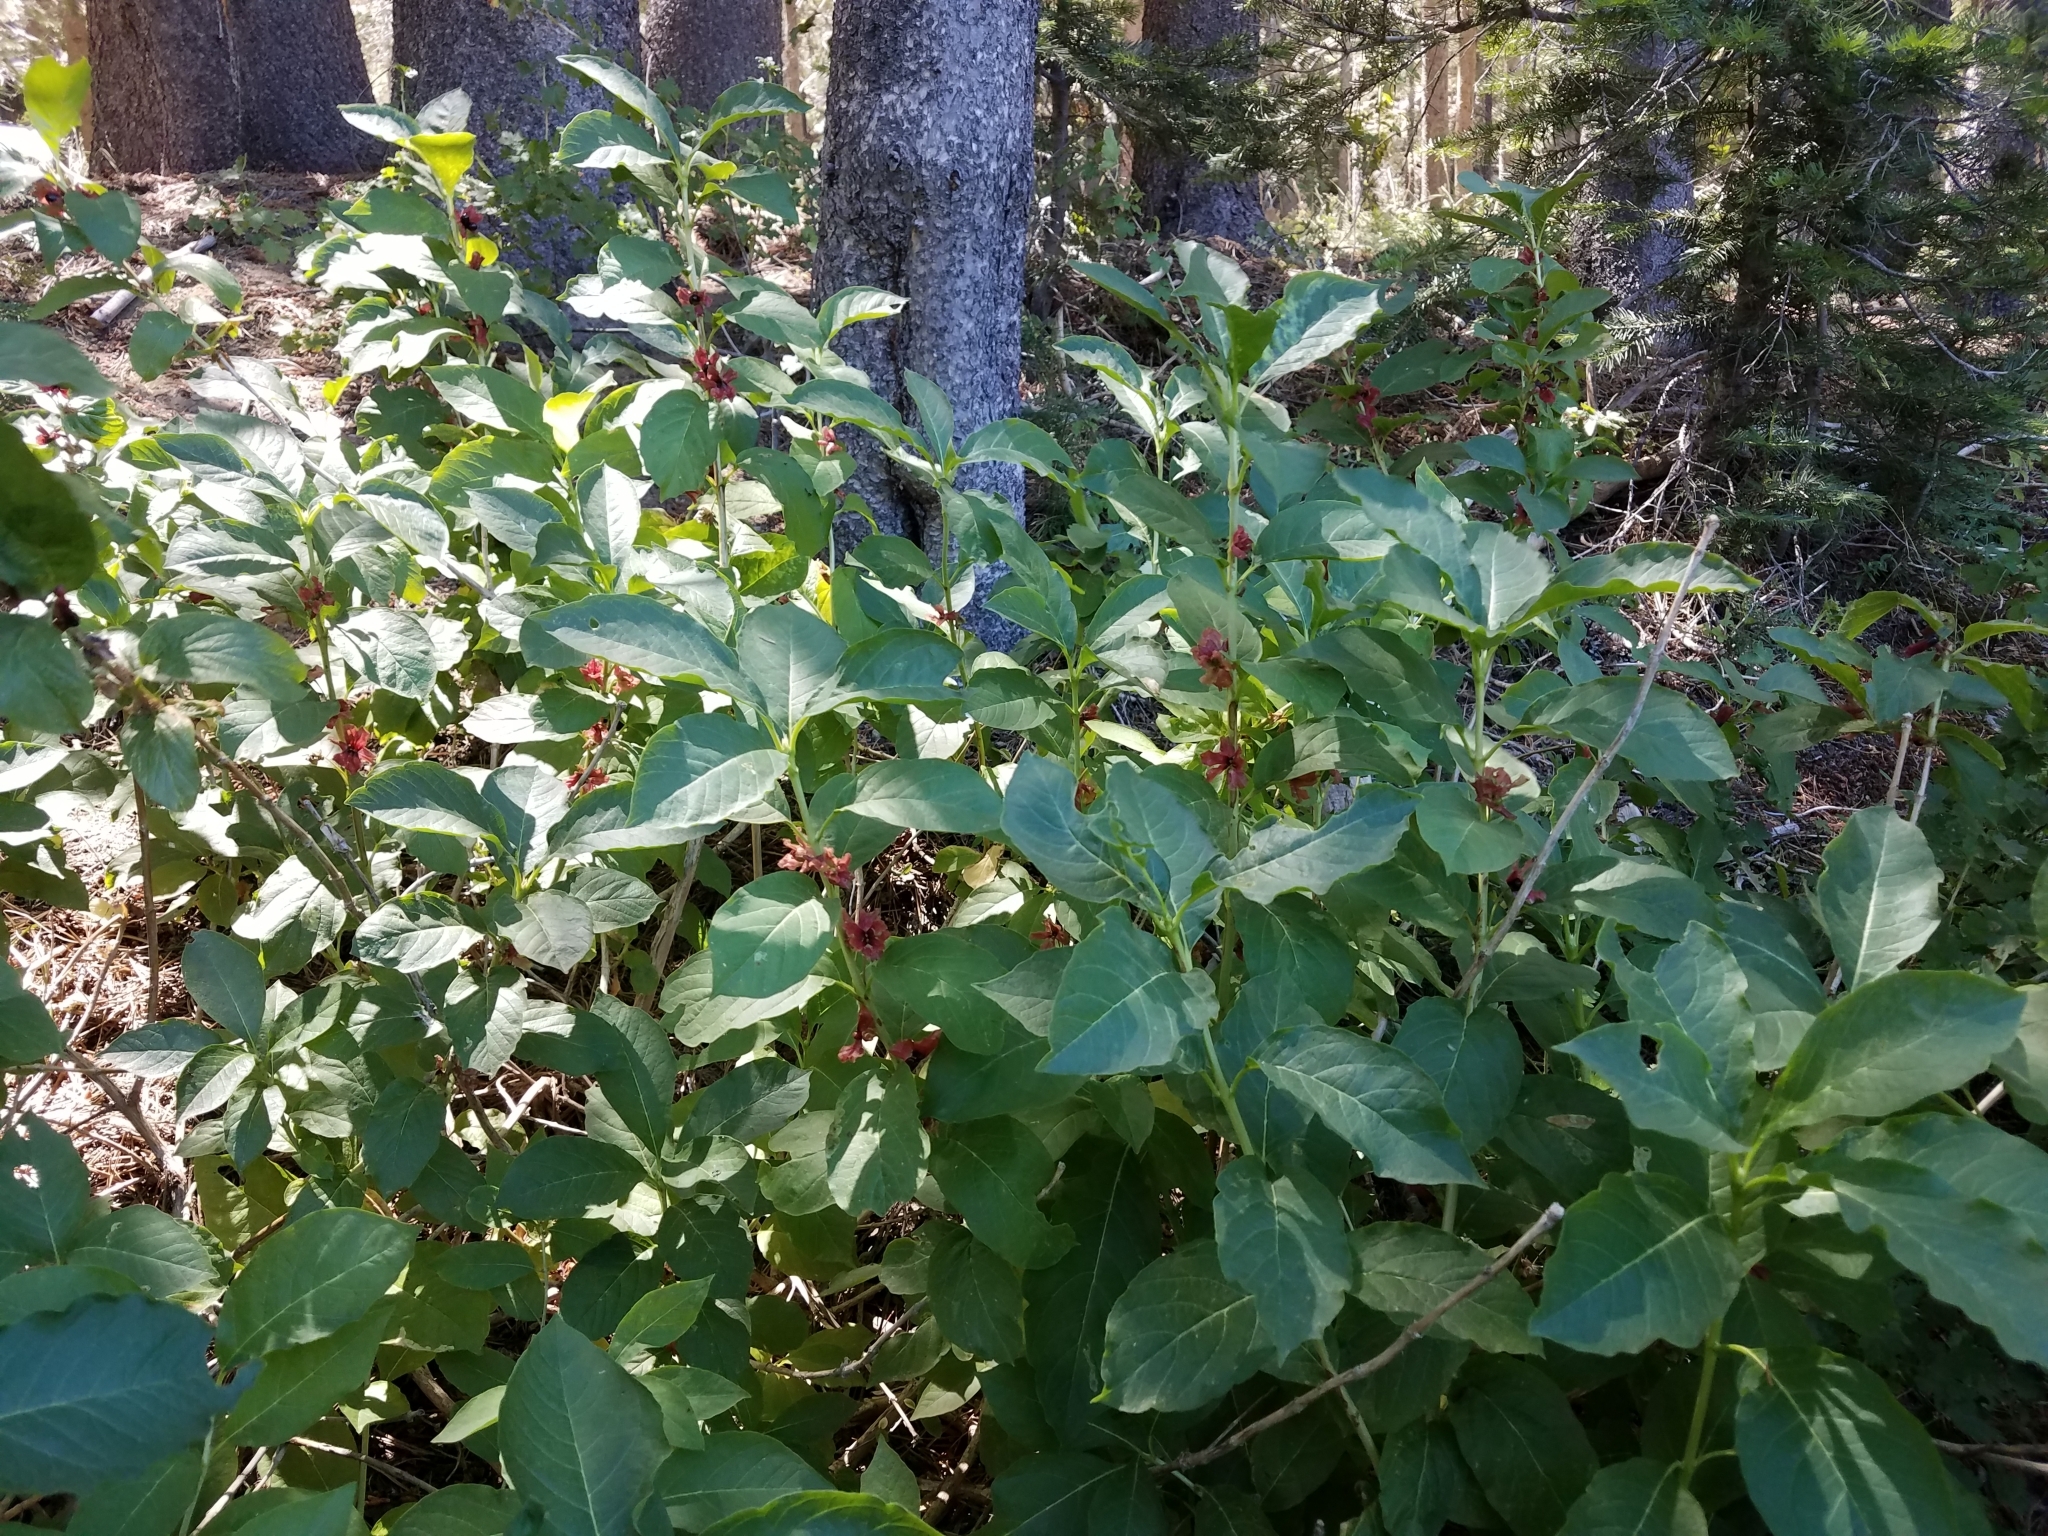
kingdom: Plantae
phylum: Tracheophyta
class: Magnoliopsida
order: Dipsacales
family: Caprifoliaceae
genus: Lonicera
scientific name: Lonicera involucrata
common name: Californian honeysuckle
